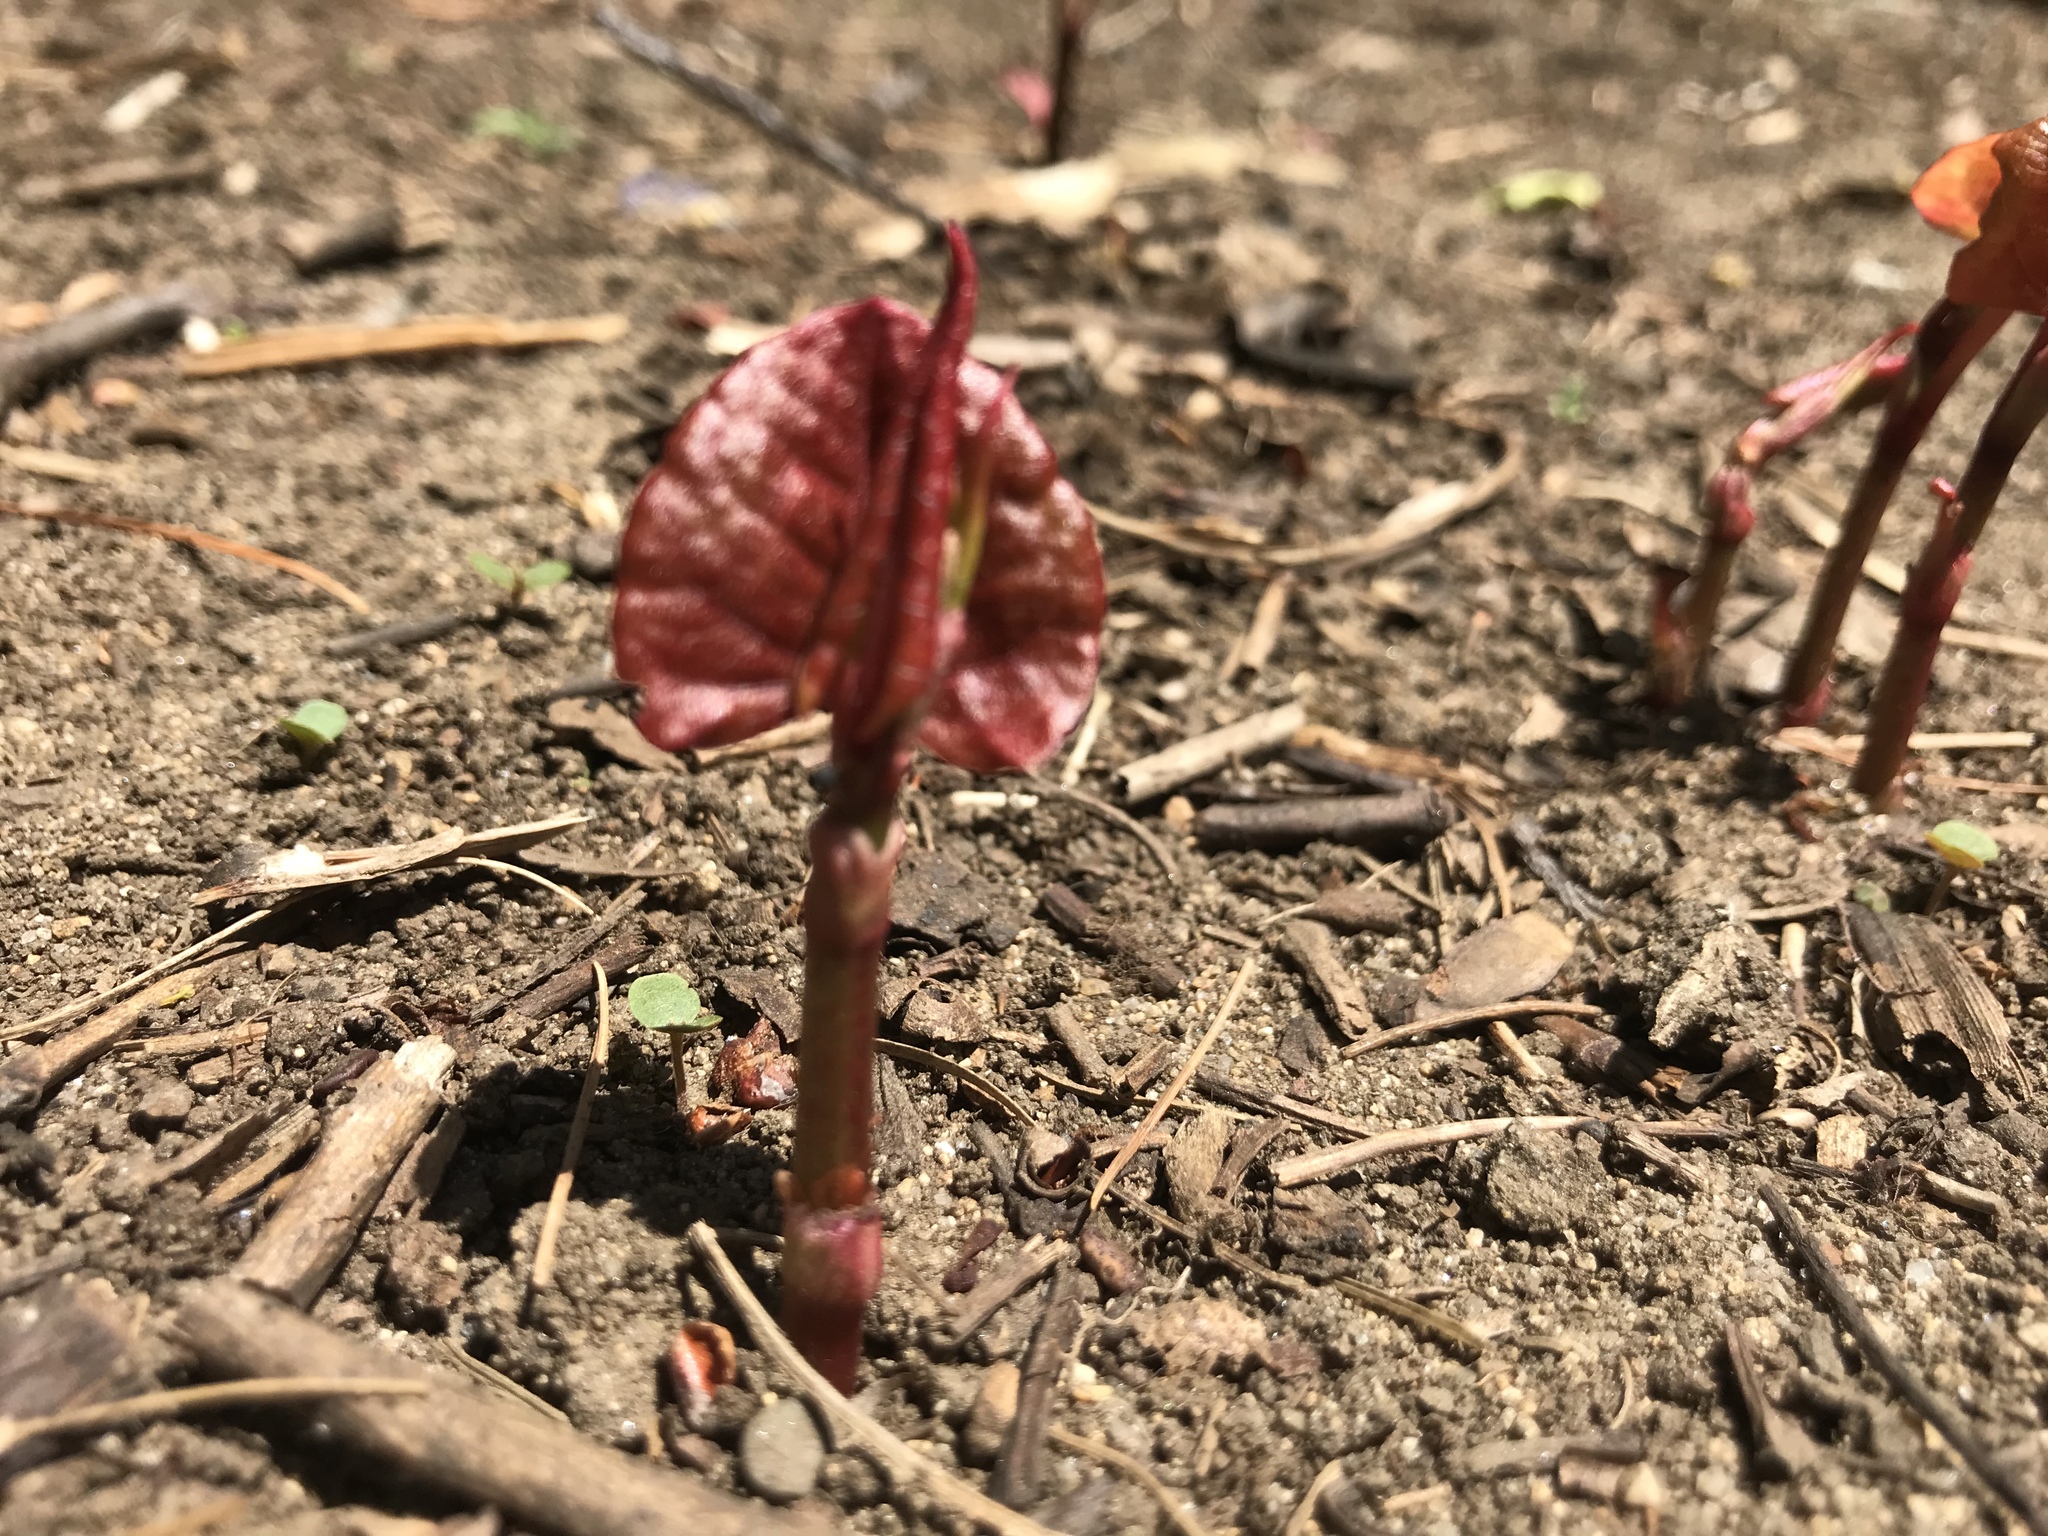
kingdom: Plantae
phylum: Tracheophyta
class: Magnoliopsida
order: Caryophyllales
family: Polygonaceae
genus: Reynoutria
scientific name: Reynoutria japonica
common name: Japanese knotweed
